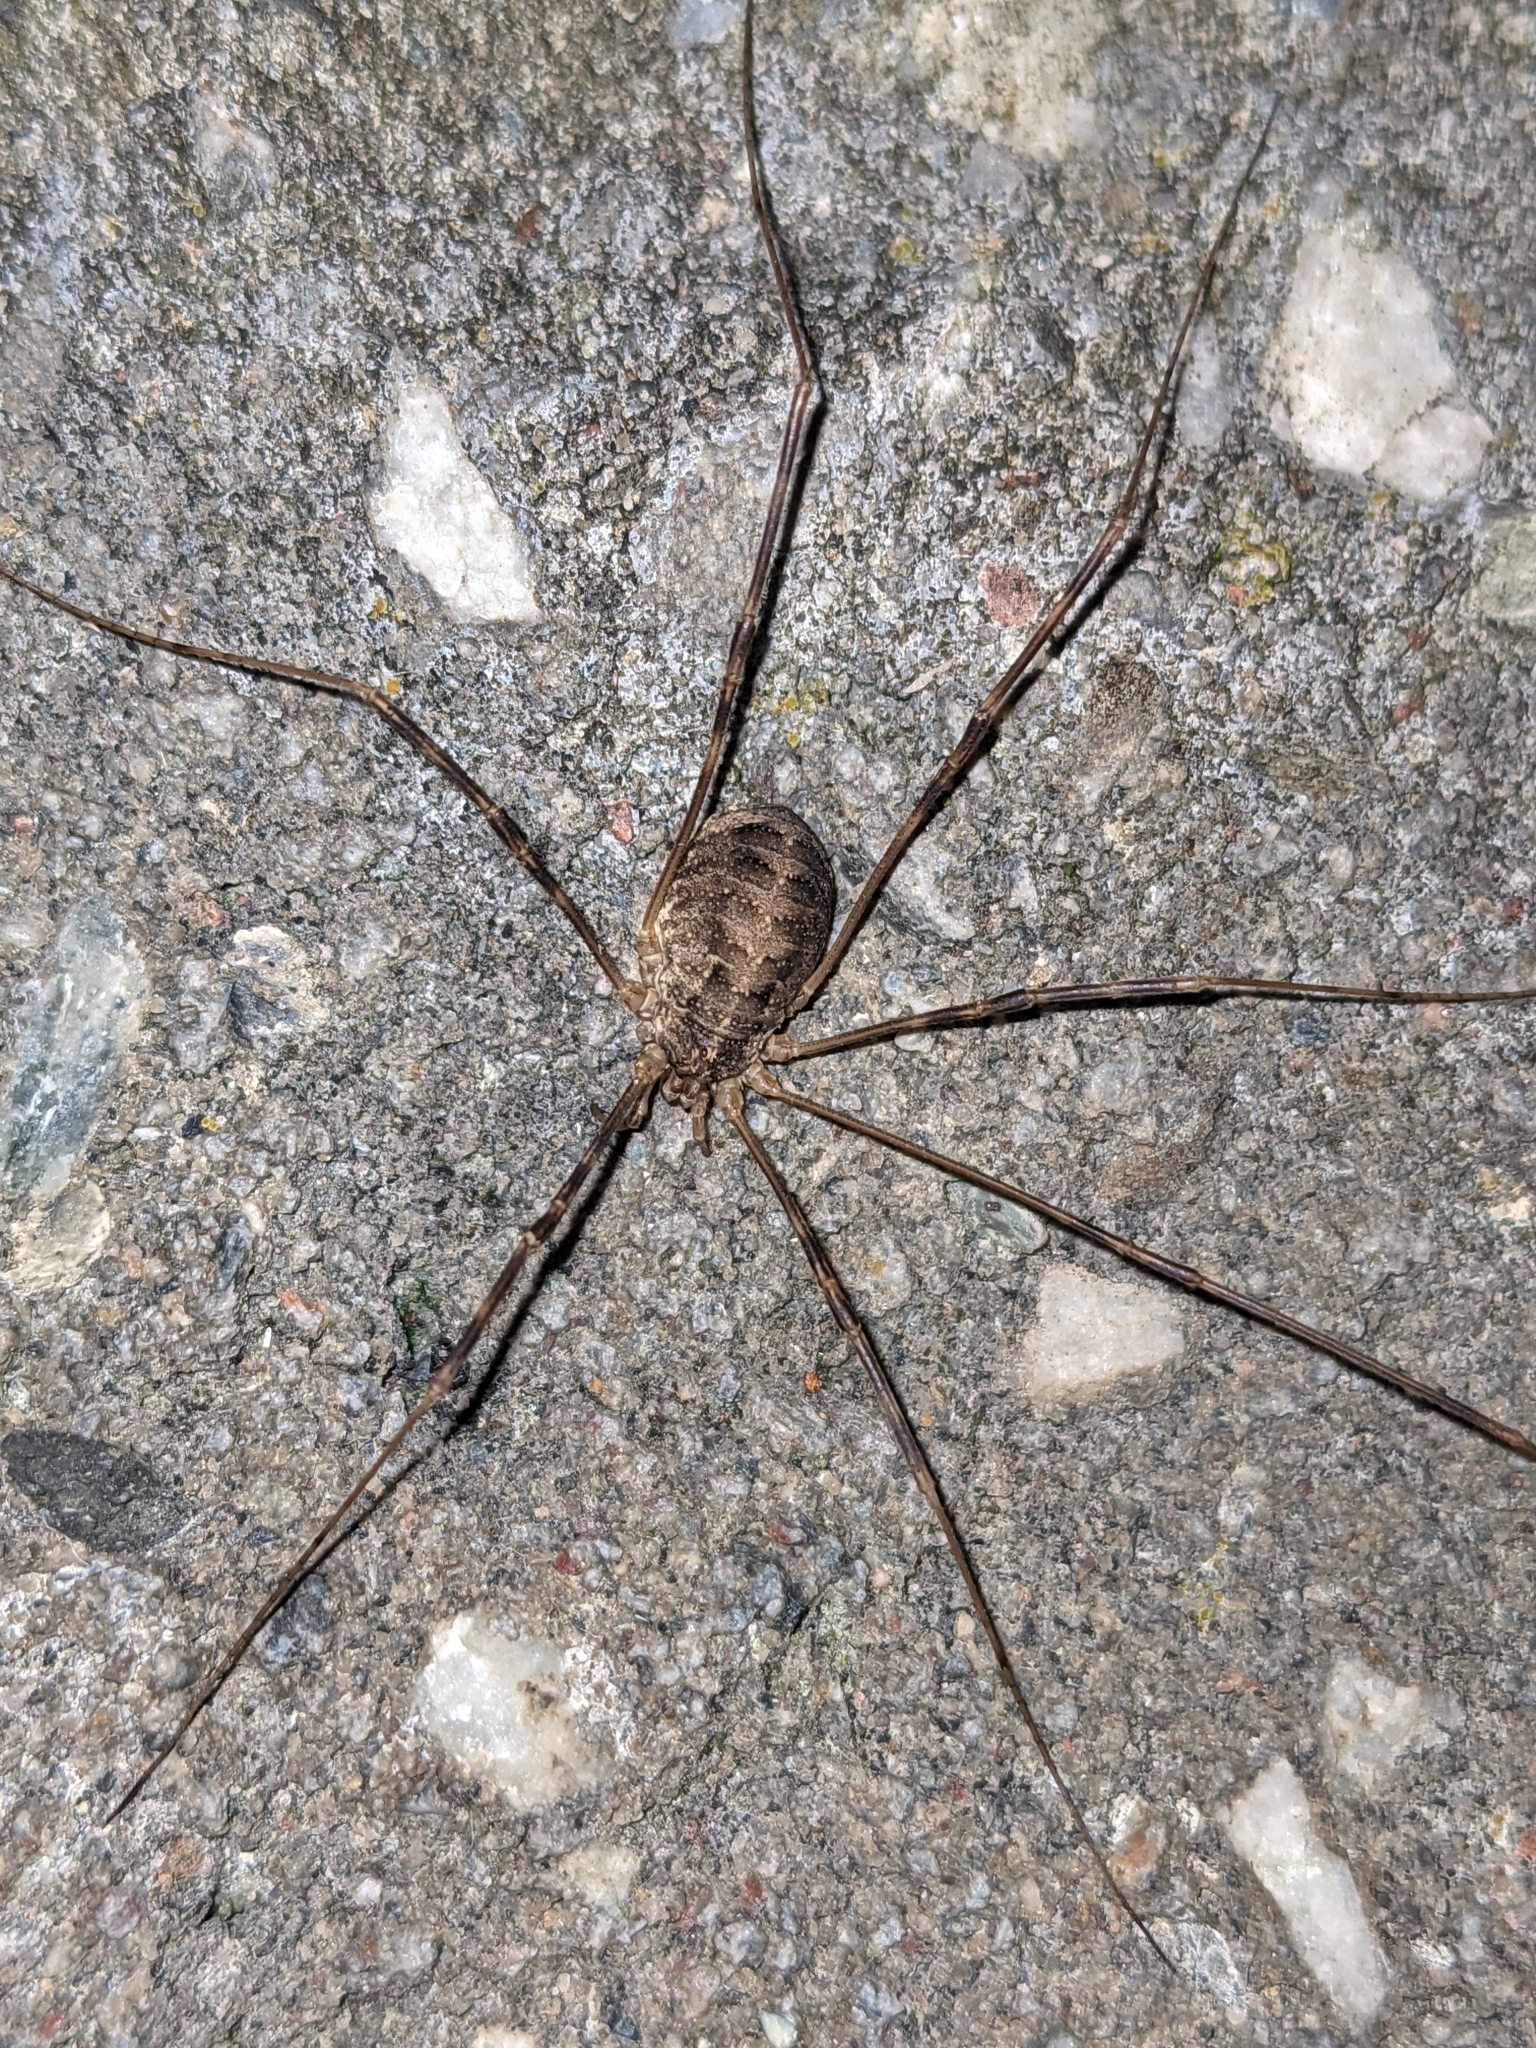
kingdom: Animalia
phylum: Arthropoda
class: Arachnida
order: Opiliones
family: Phalangiidae
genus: Opilio
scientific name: Opilio parietinus
